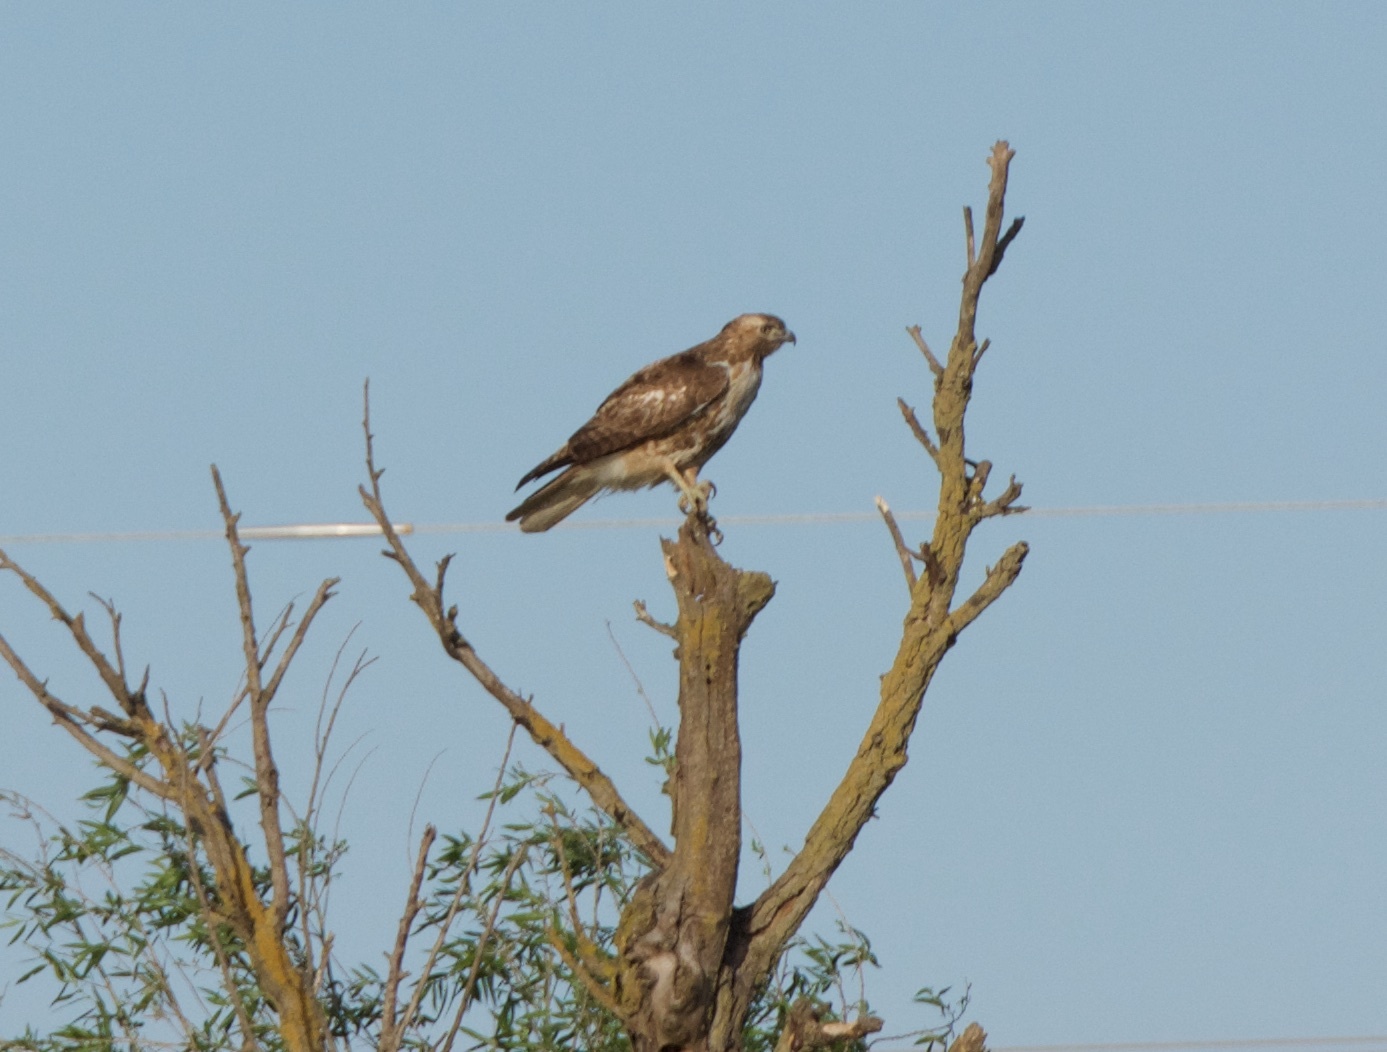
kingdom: Animalia
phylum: Chordata
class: Aves
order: Accipitriformes
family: Accipitridae
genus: Buteo
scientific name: Buteo jamaicensis
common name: Red-tailed hawk
